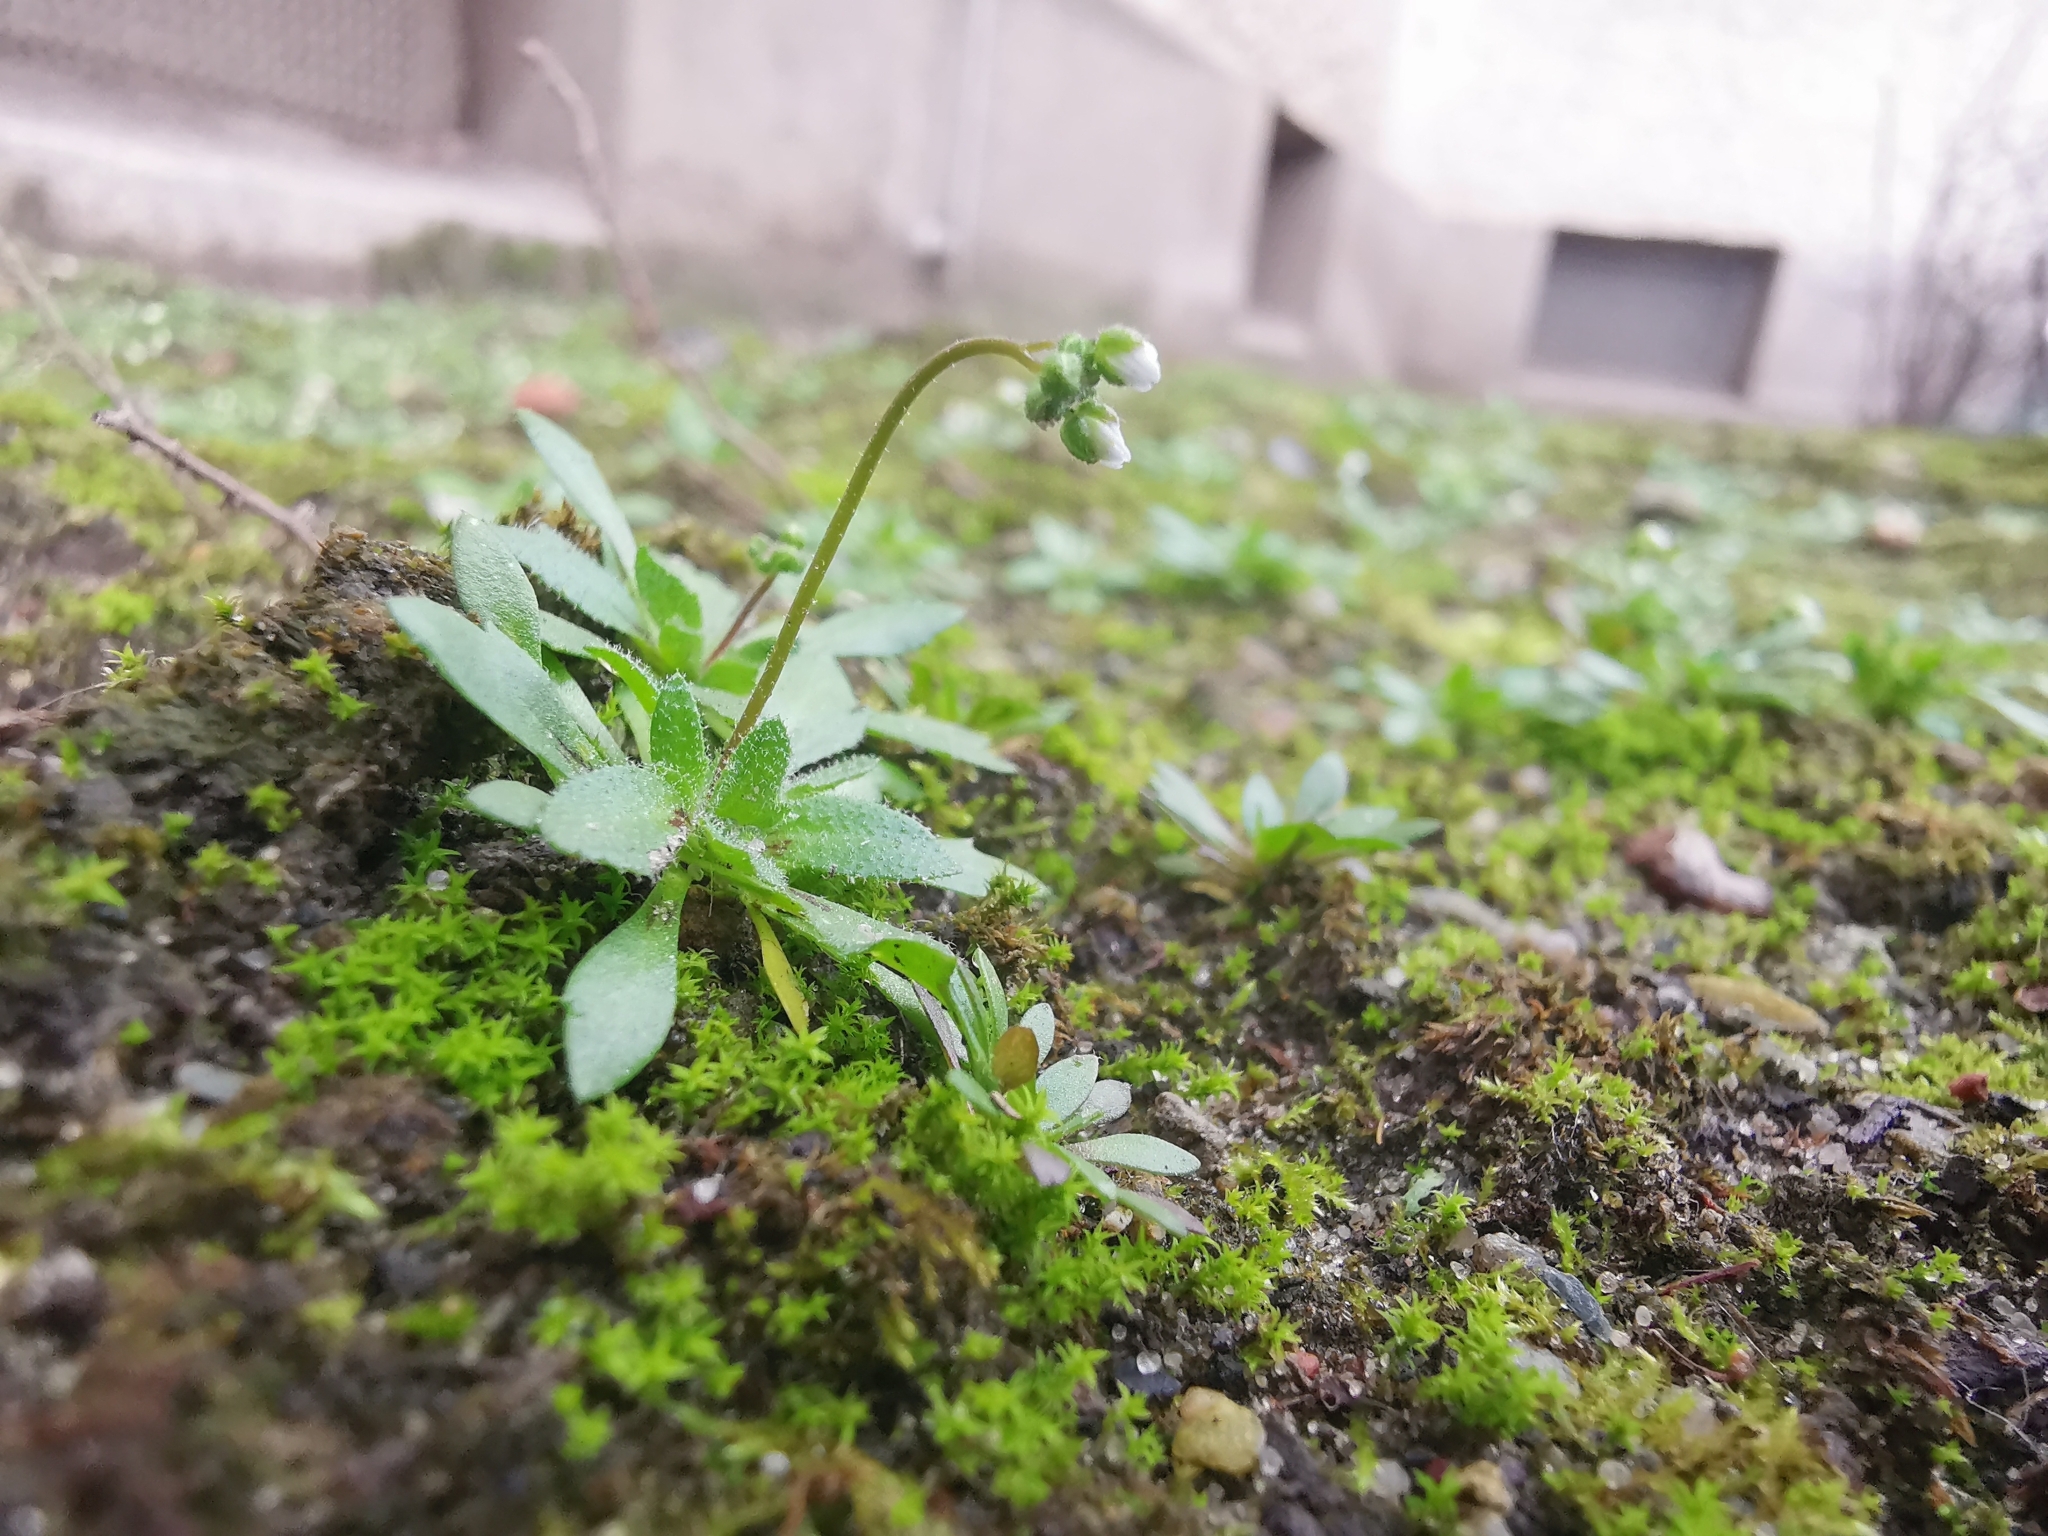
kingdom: Plantae
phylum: Tracheophyta
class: Magnoliopsida
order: Brassicales
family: Brassicaceae
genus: Draba
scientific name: Draba verna
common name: Spring draba
